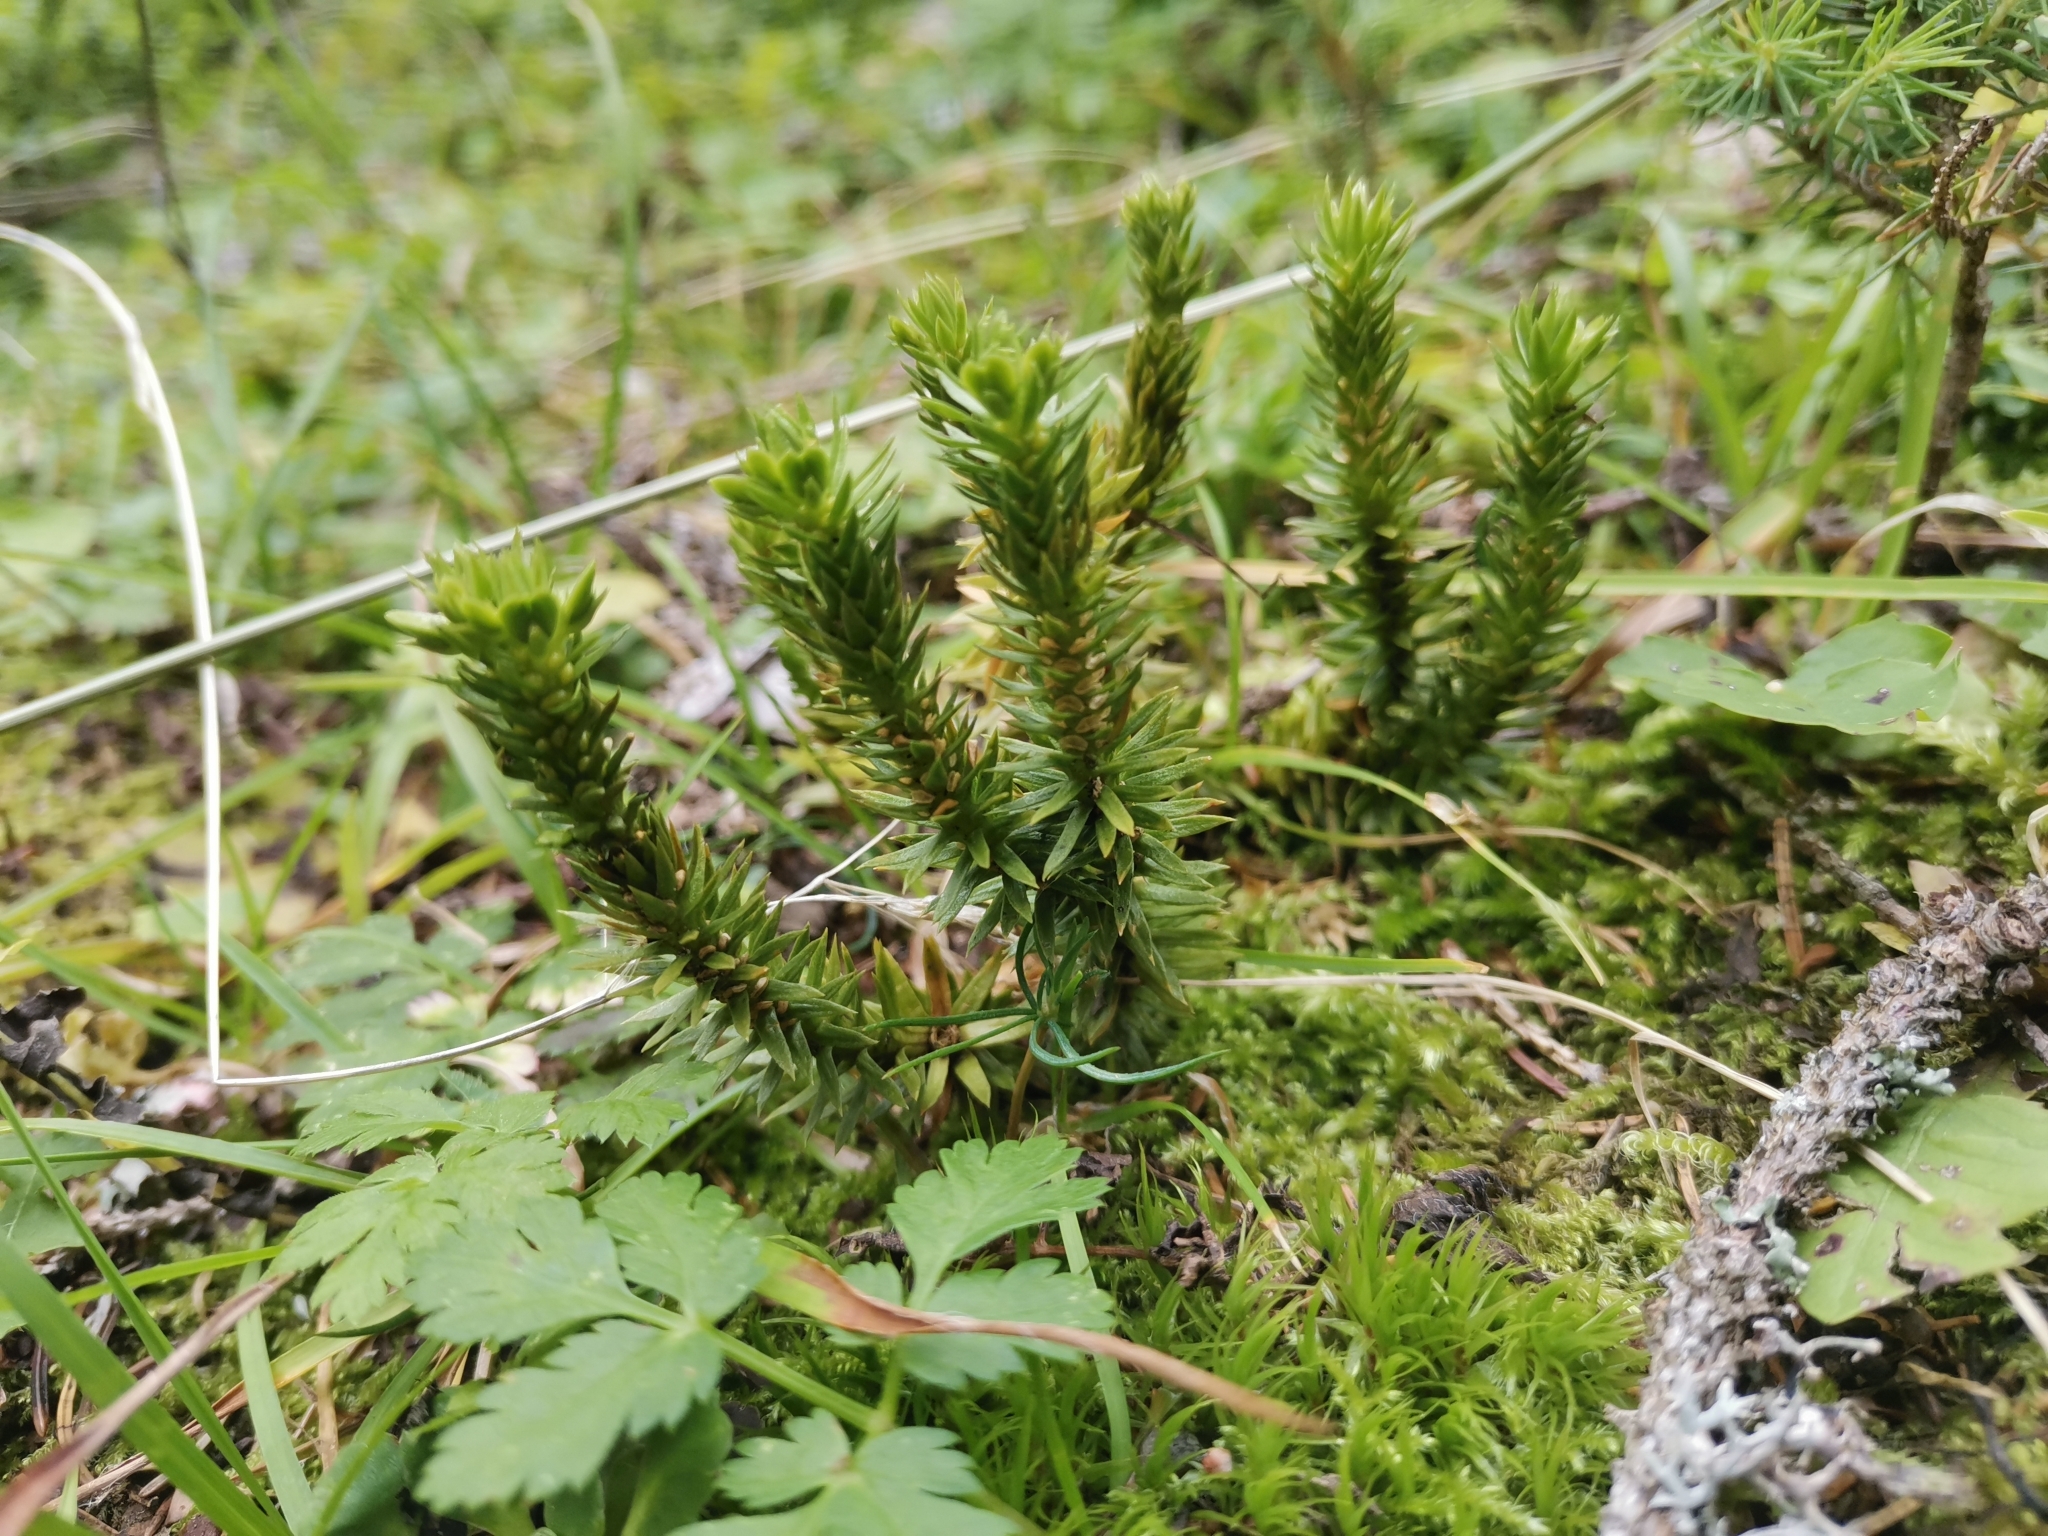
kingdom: Plantae
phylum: Tracheophyta
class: Lycopodiopsida
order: Lycopodiales
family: Lycopodiaceae
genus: Huperzia
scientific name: Huperzia selago
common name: Northern firmoss
